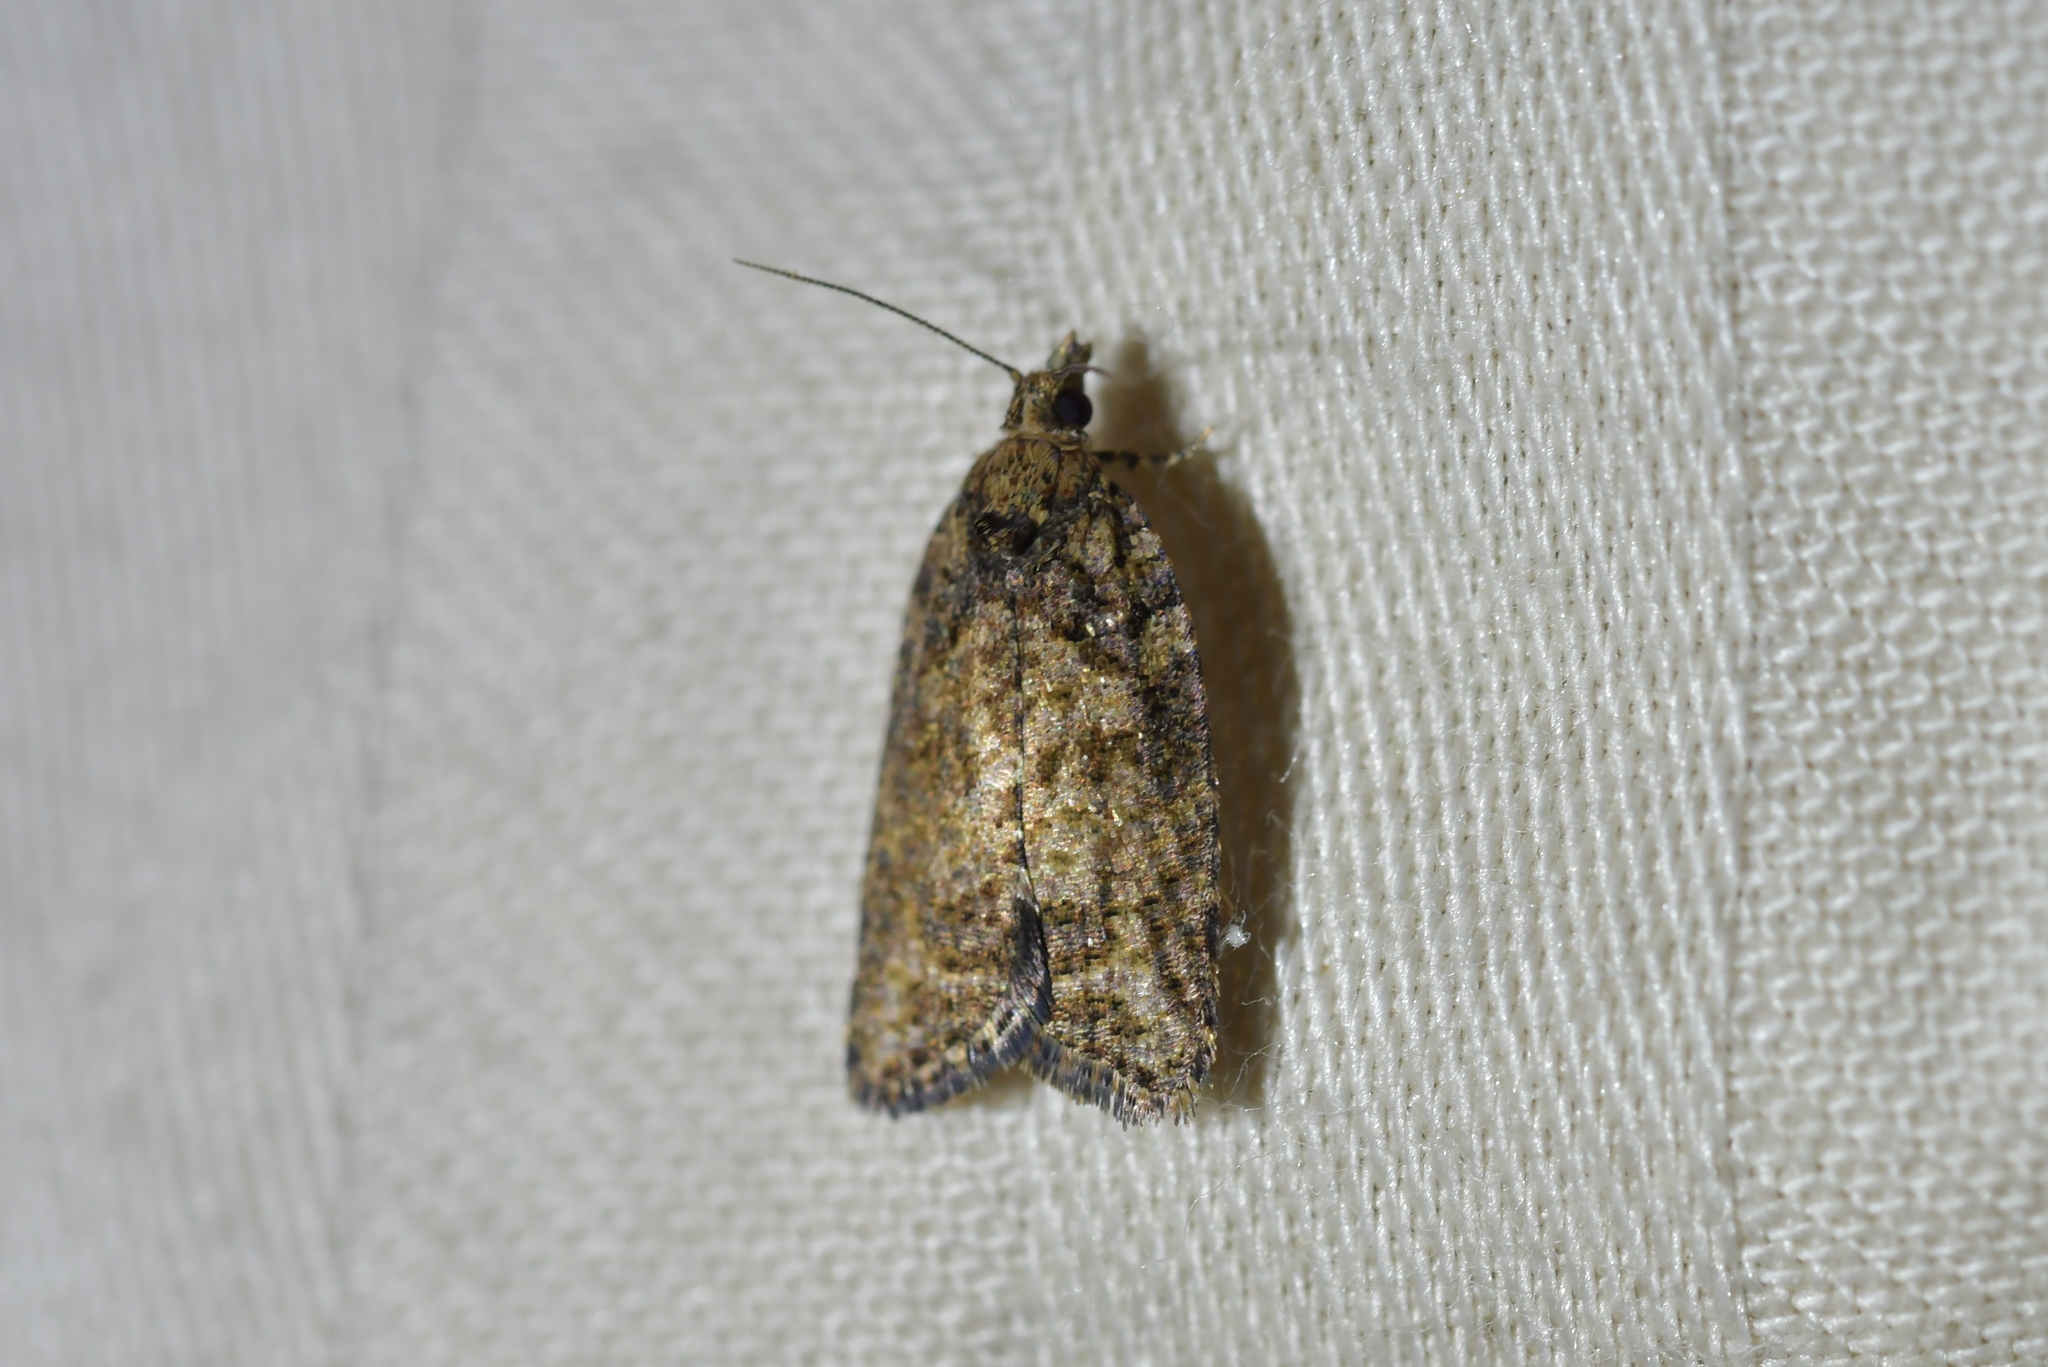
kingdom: Animalia
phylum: Arthropoda
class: Insecta
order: Lepidoptera
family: Tortricidae
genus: Capua
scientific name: Capua intractana
